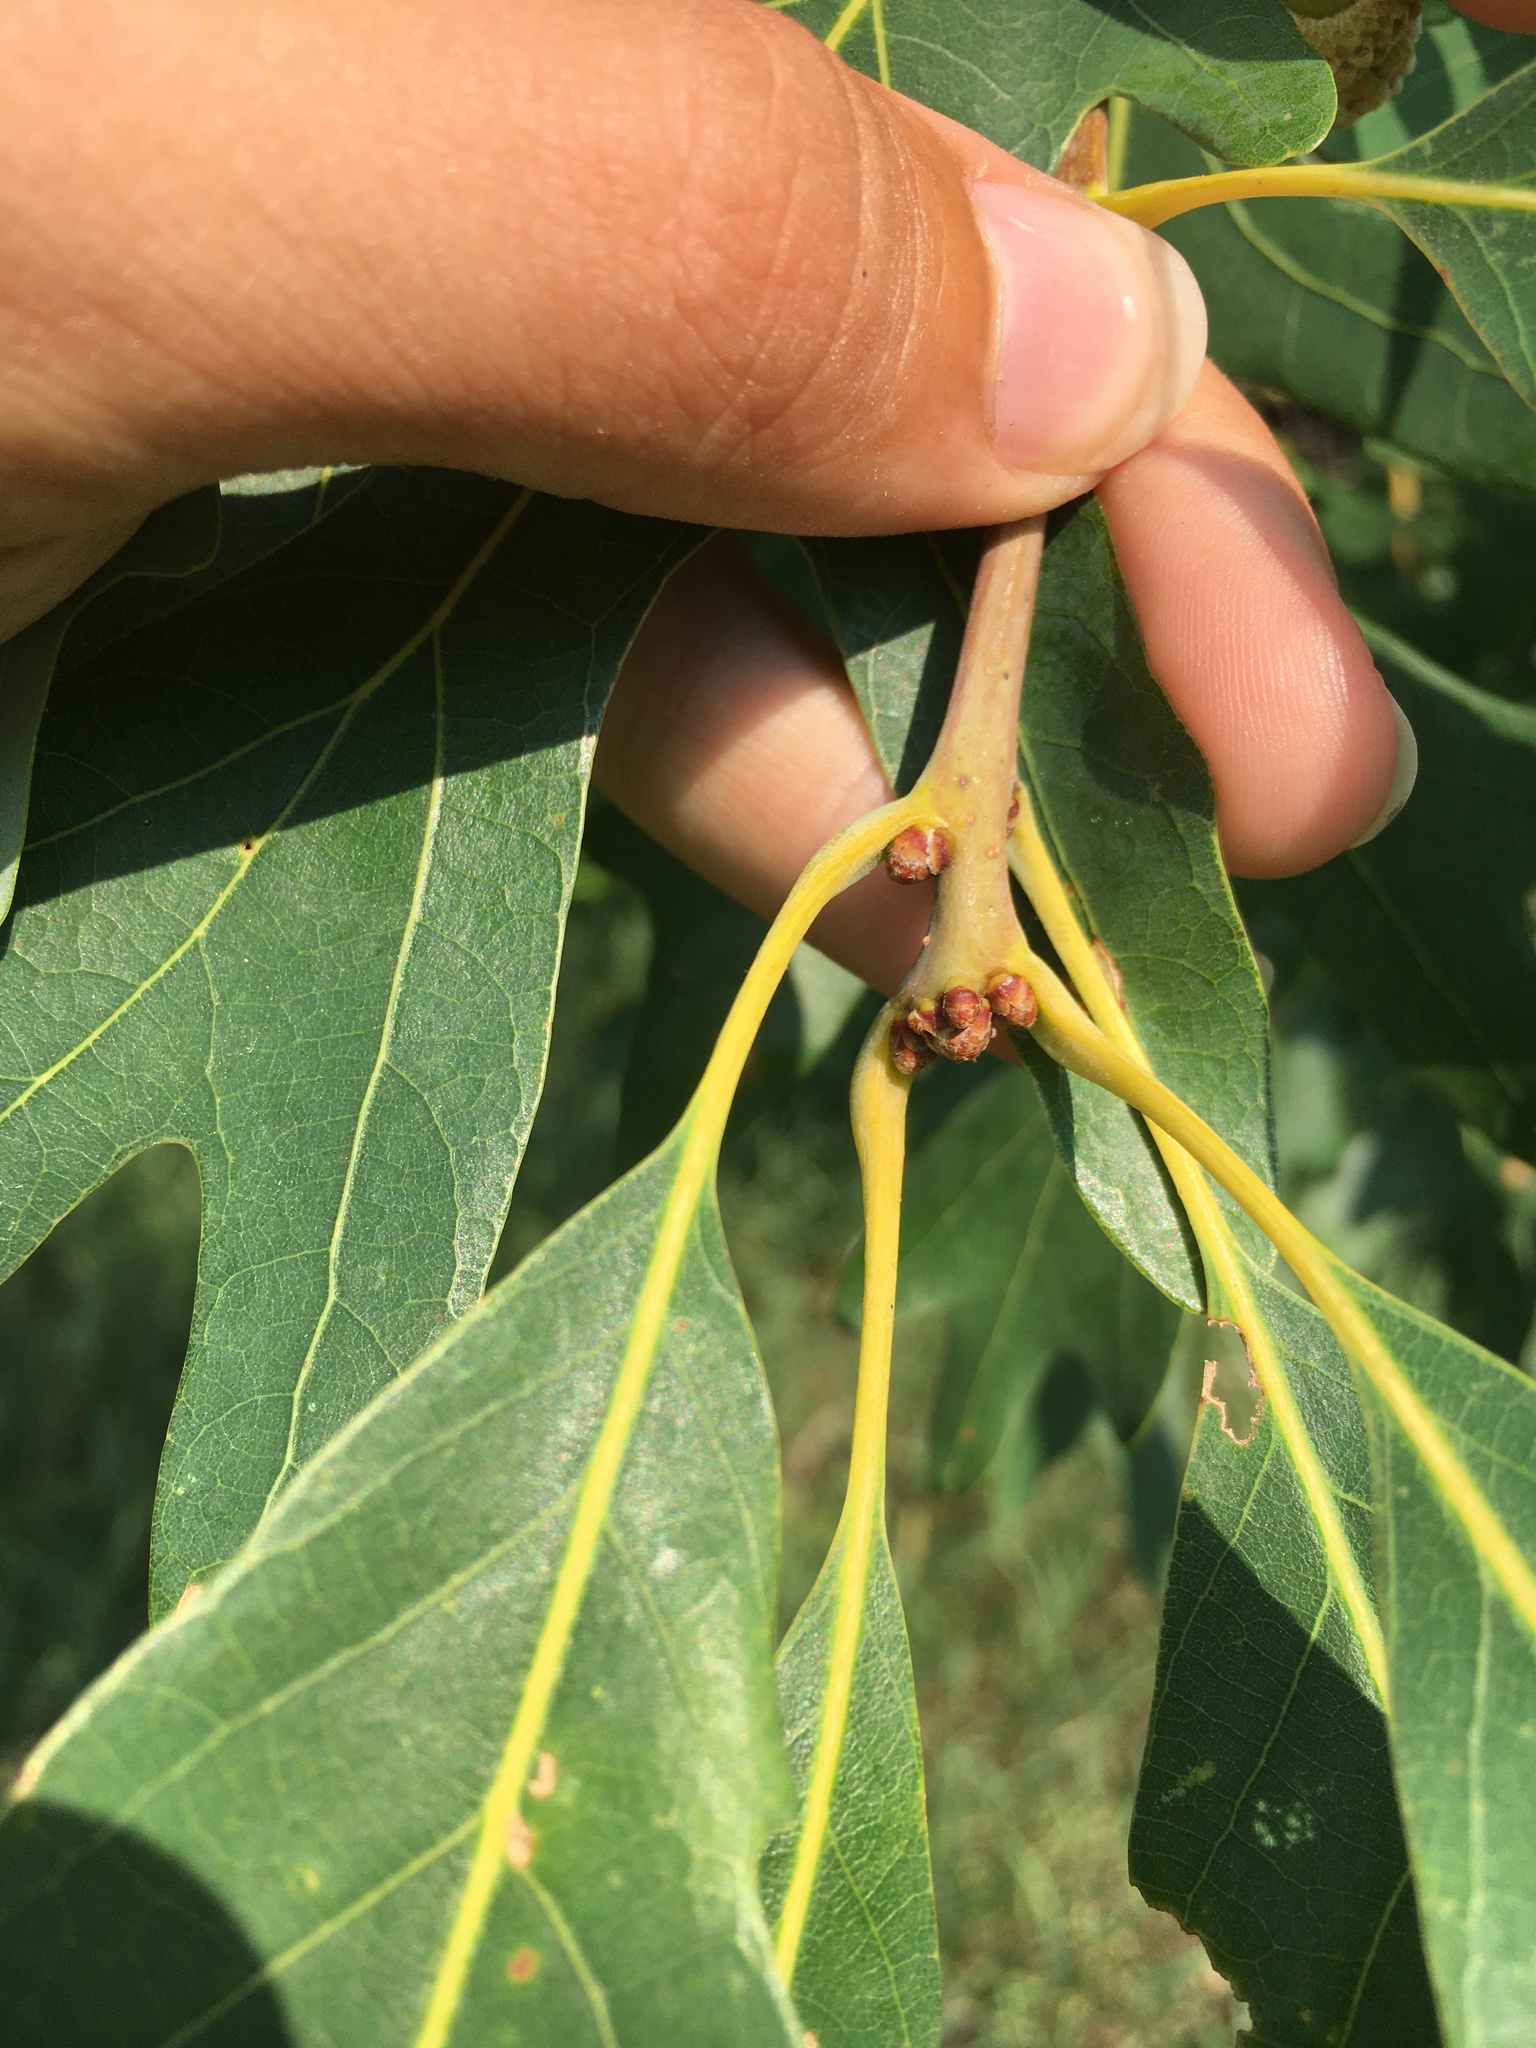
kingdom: Plantae
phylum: Tracheophyta
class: Magnoliopsida
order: Fagales
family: Fagaceae
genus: Quercus
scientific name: Quercus alba
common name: White oak
